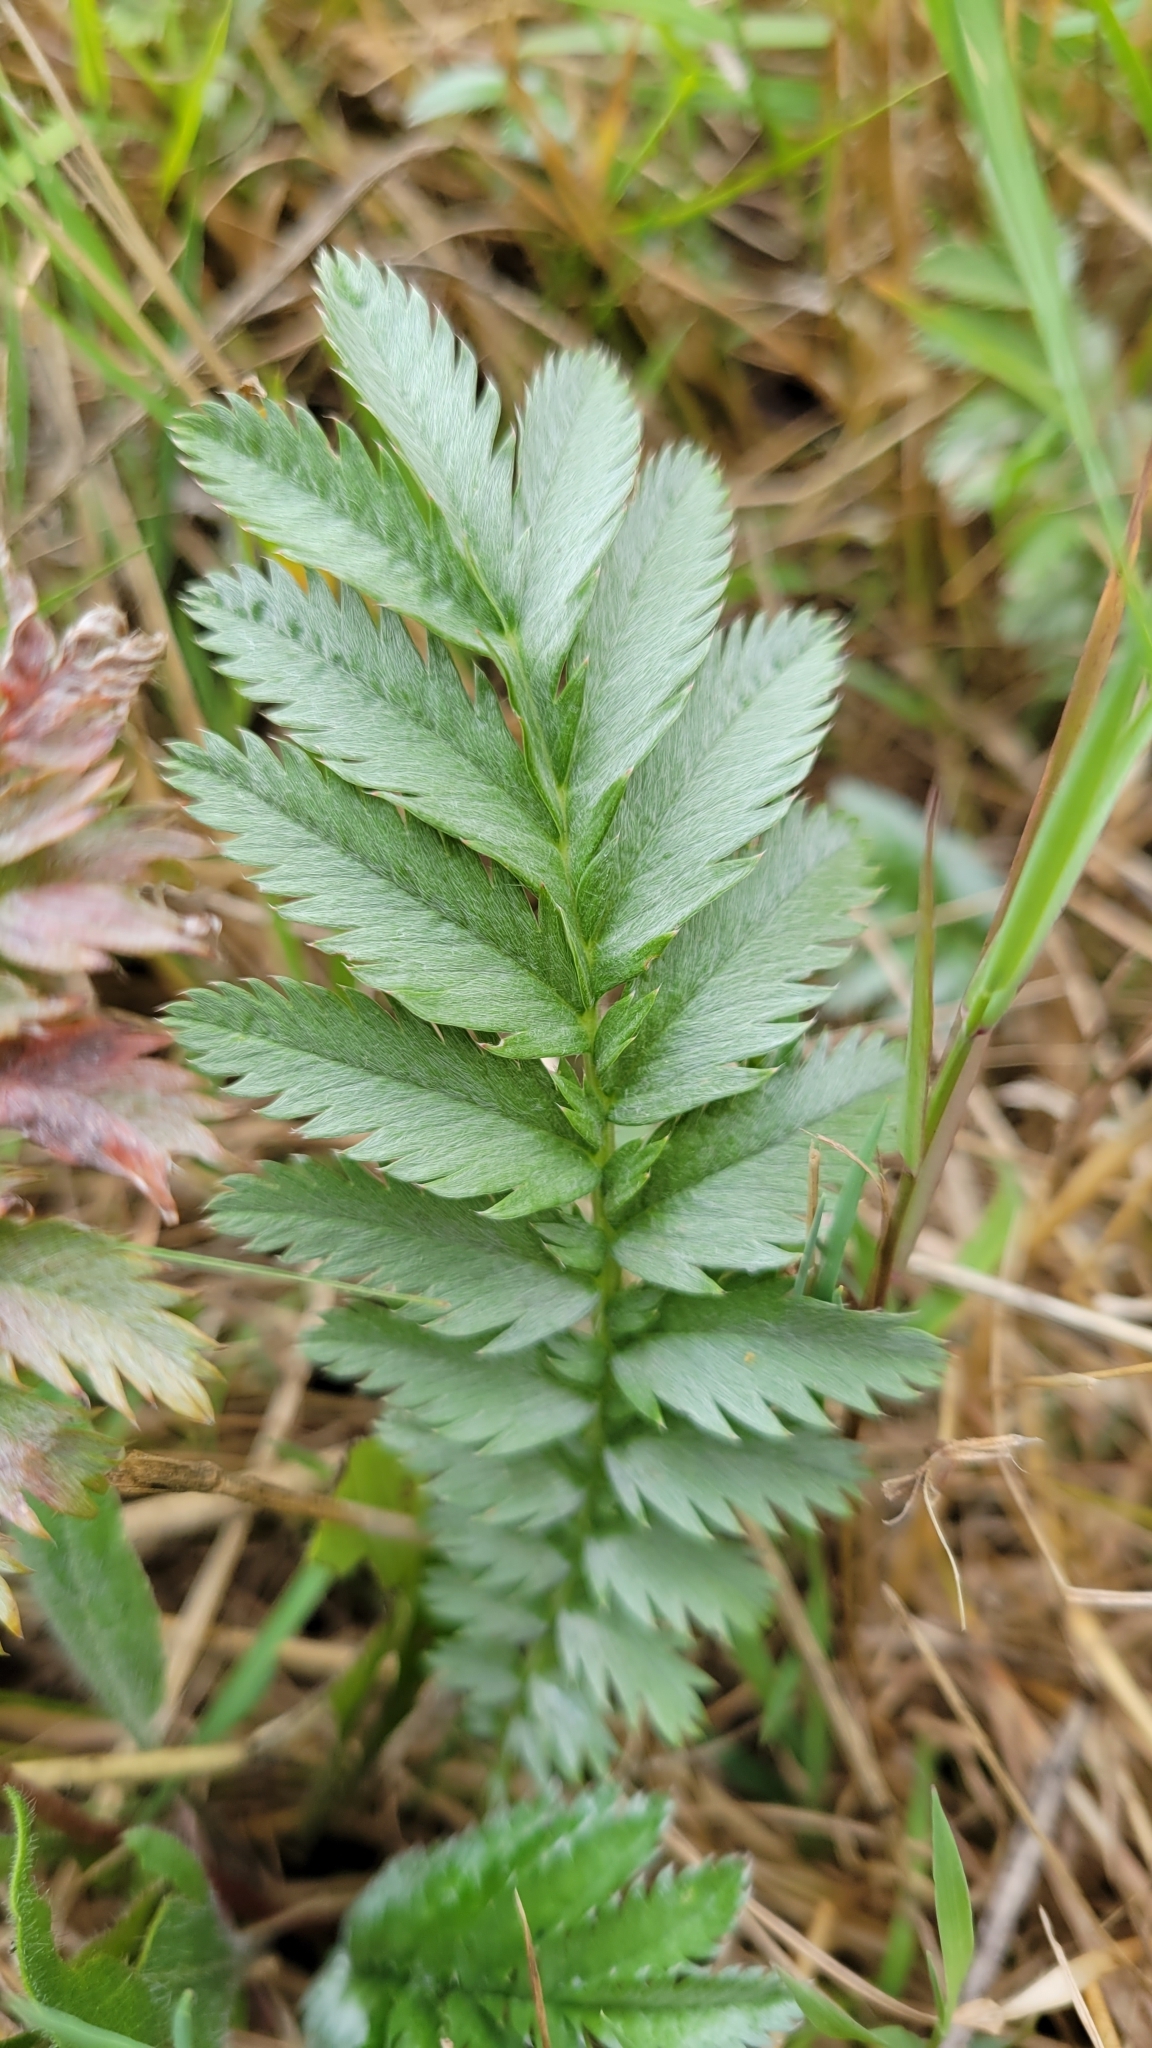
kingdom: Plantae
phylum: Tracheophyta
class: Magnoliopsida
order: Rosales
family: Rosaceae
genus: Argentina
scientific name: Argentina anserina
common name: Common silverweed
